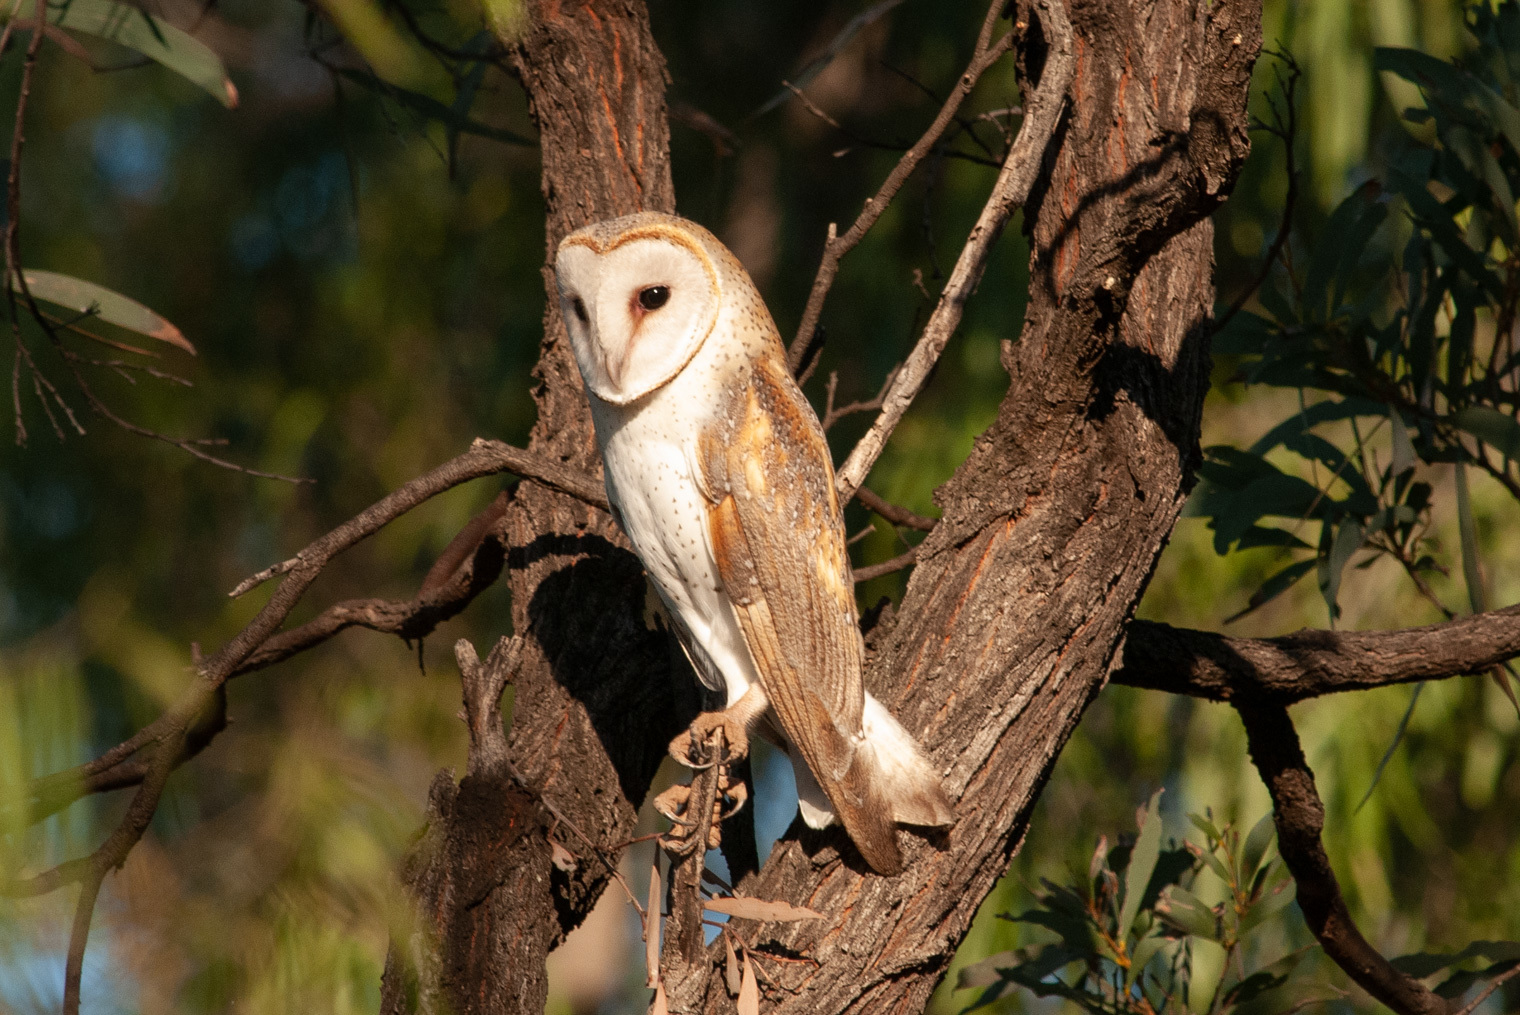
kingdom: Animalia
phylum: Chordata
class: Aves
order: Strigiformes
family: Tytonidae
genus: Tyto
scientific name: Tyto alba
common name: Barn owl
